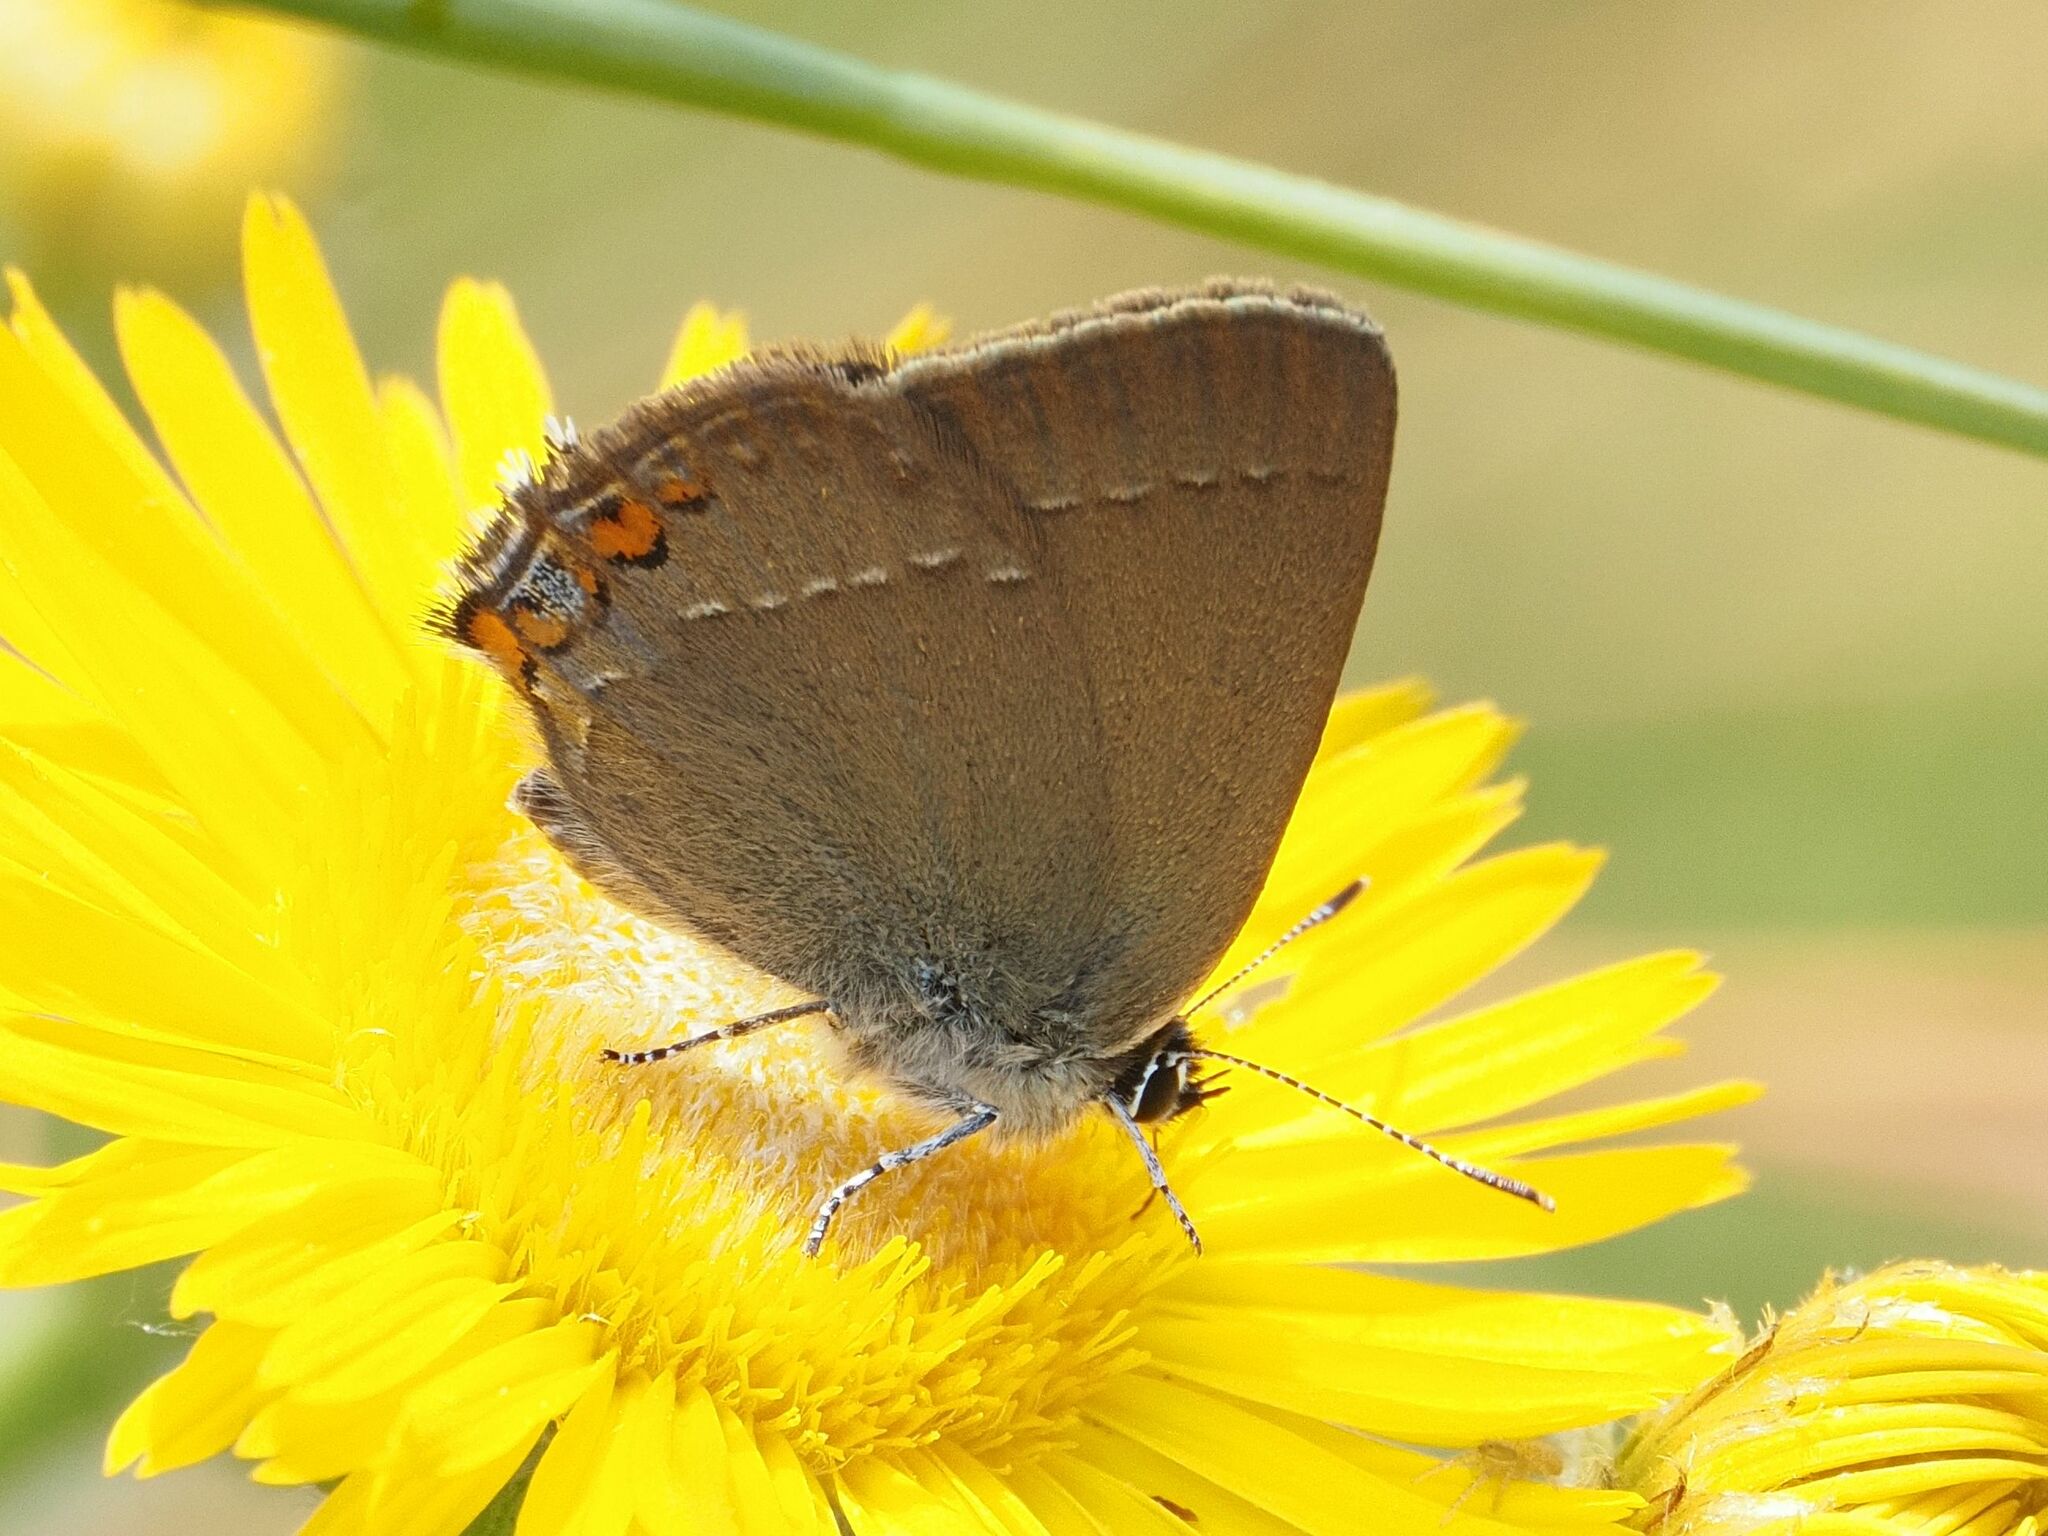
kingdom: Animalia
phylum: Arthropoda
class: Insecta
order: Lepidoptera
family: Lycaenidae
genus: Strymon
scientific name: Strymon acaciae
